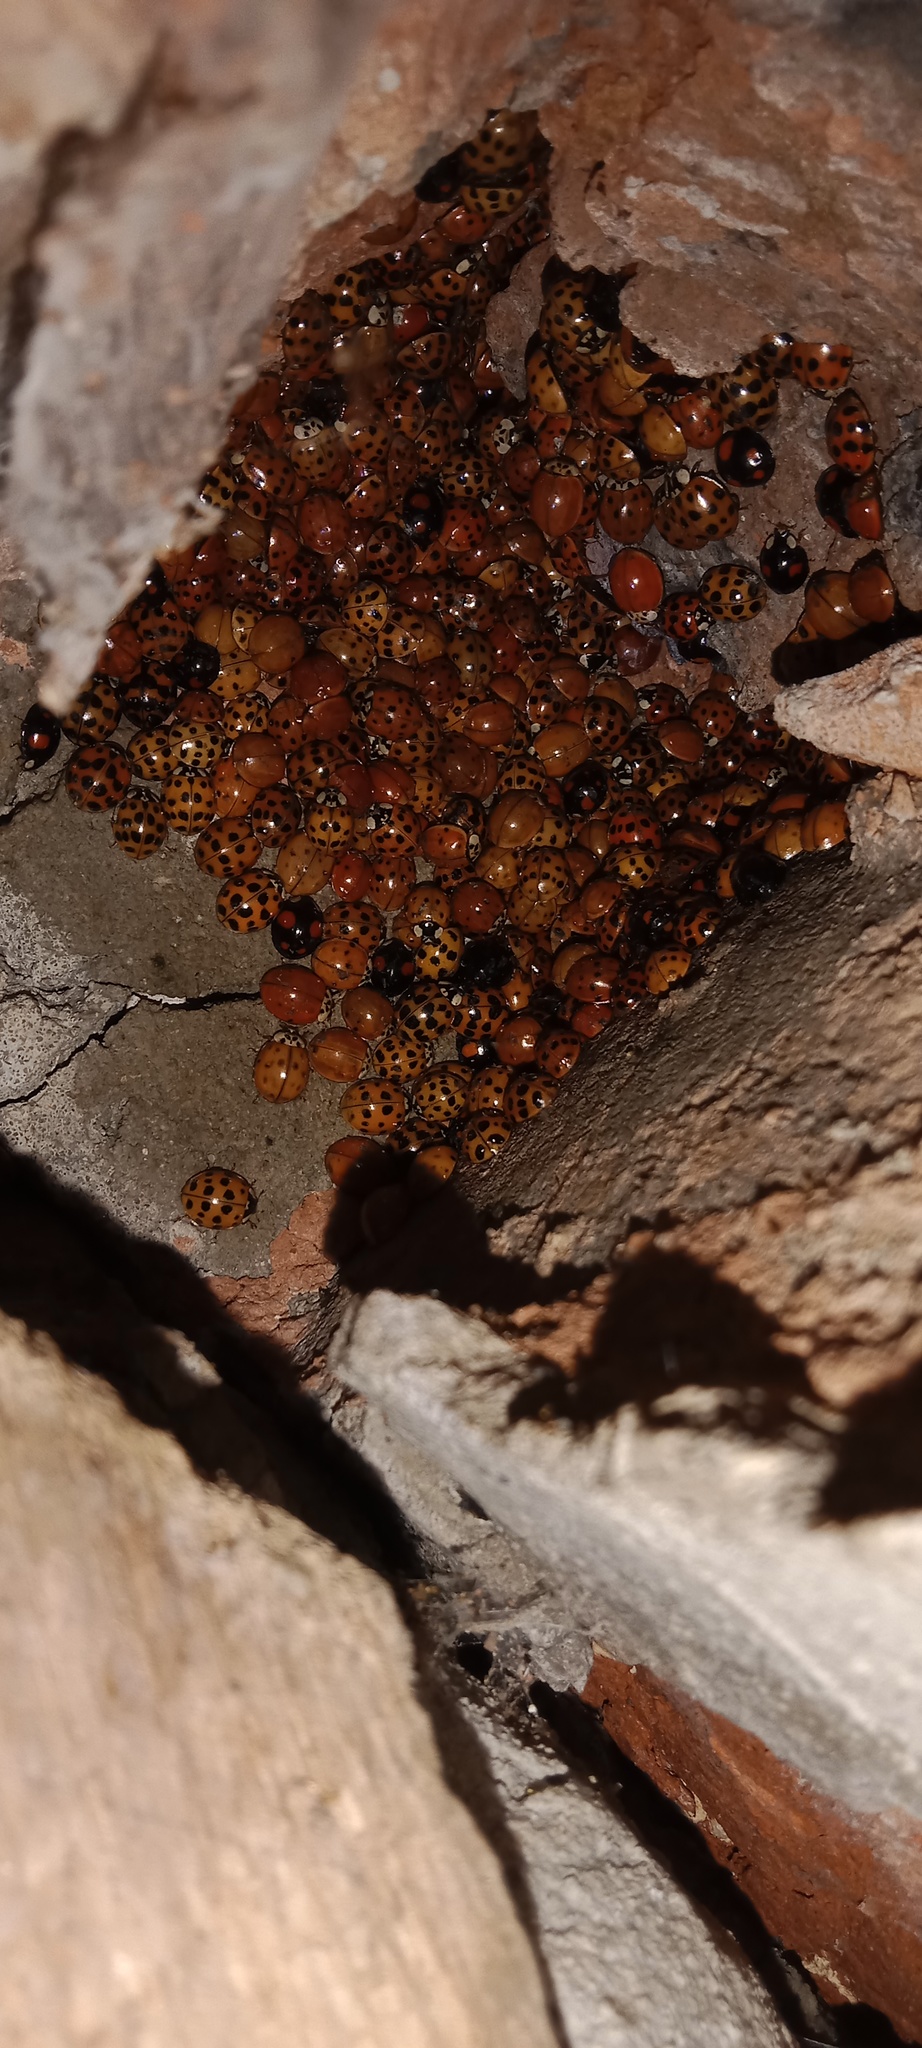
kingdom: Animalia
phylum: Arthropoda
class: Insecta
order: Coleoptera
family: Coccinellidae
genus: Harmonia
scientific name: Harmonia axyridis
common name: Harlequin ladybird
